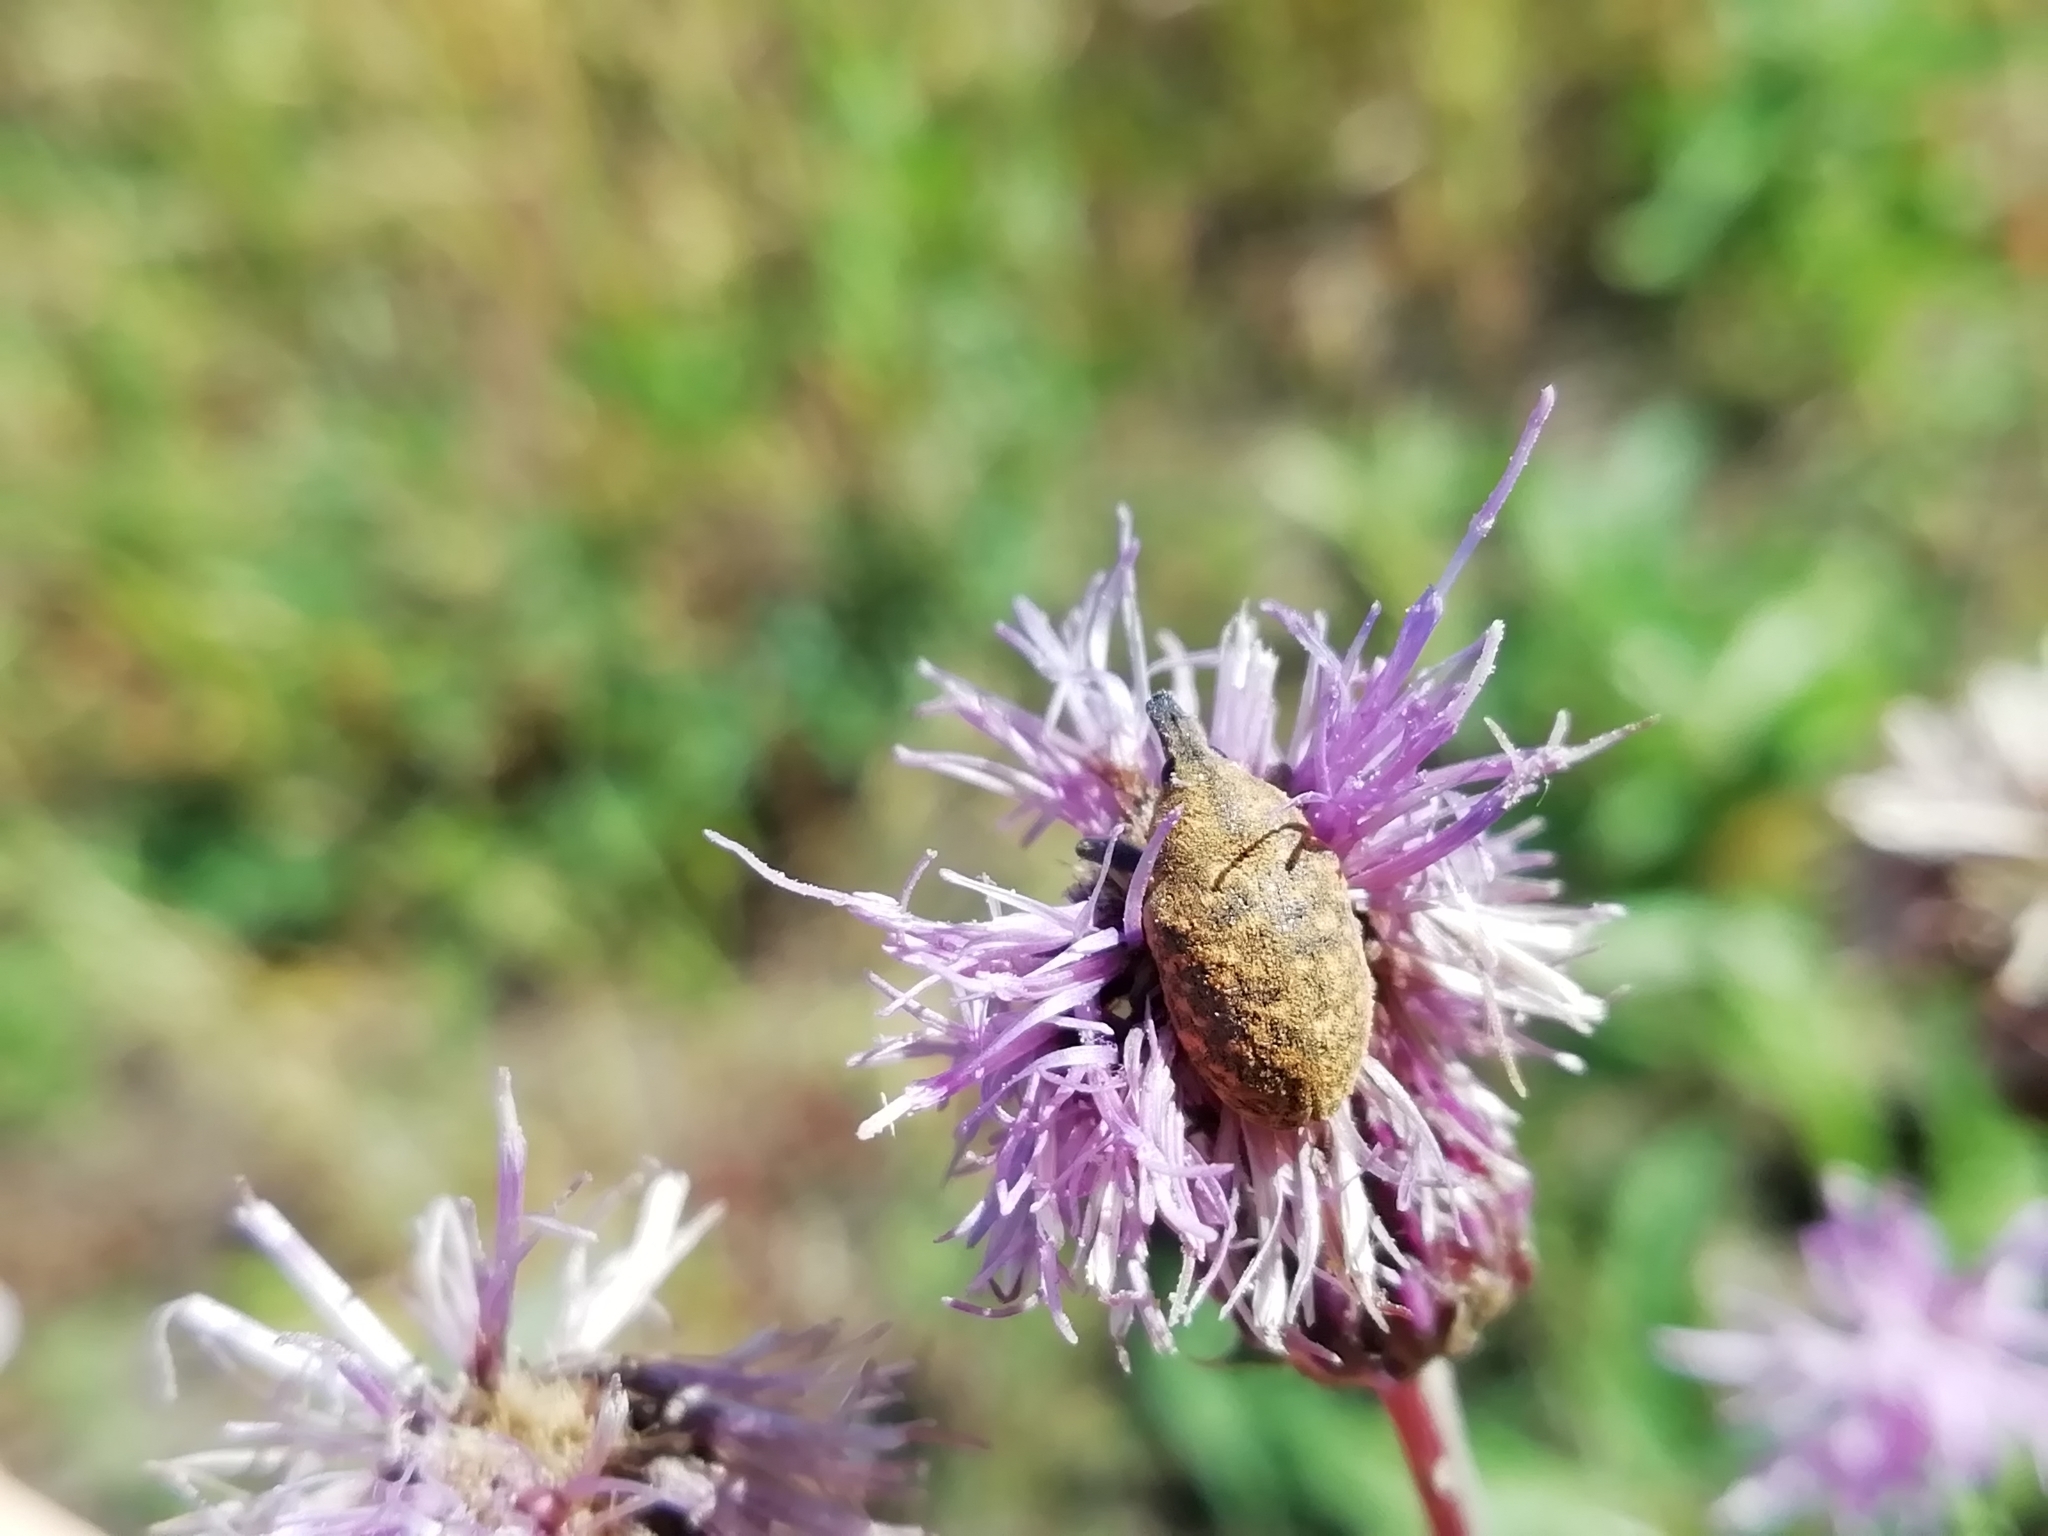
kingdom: Animalia
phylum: Arthropoda
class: Insecta
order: Coleoptera
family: Curculionidae
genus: Larinus
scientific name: Larinus turbinatus
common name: Weevil
